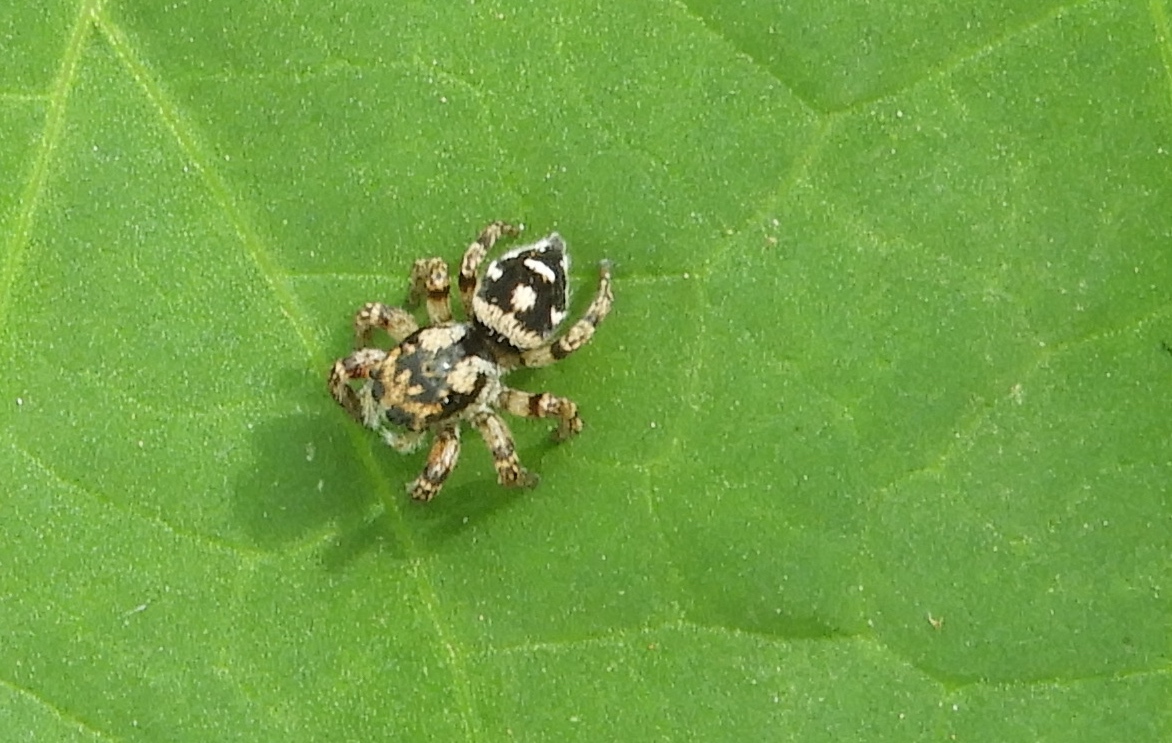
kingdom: Animalia
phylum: Arthropoda
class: Arachnida
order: Araneae
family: Salticidae
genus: Habronattus
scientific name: Habronattus fallax
